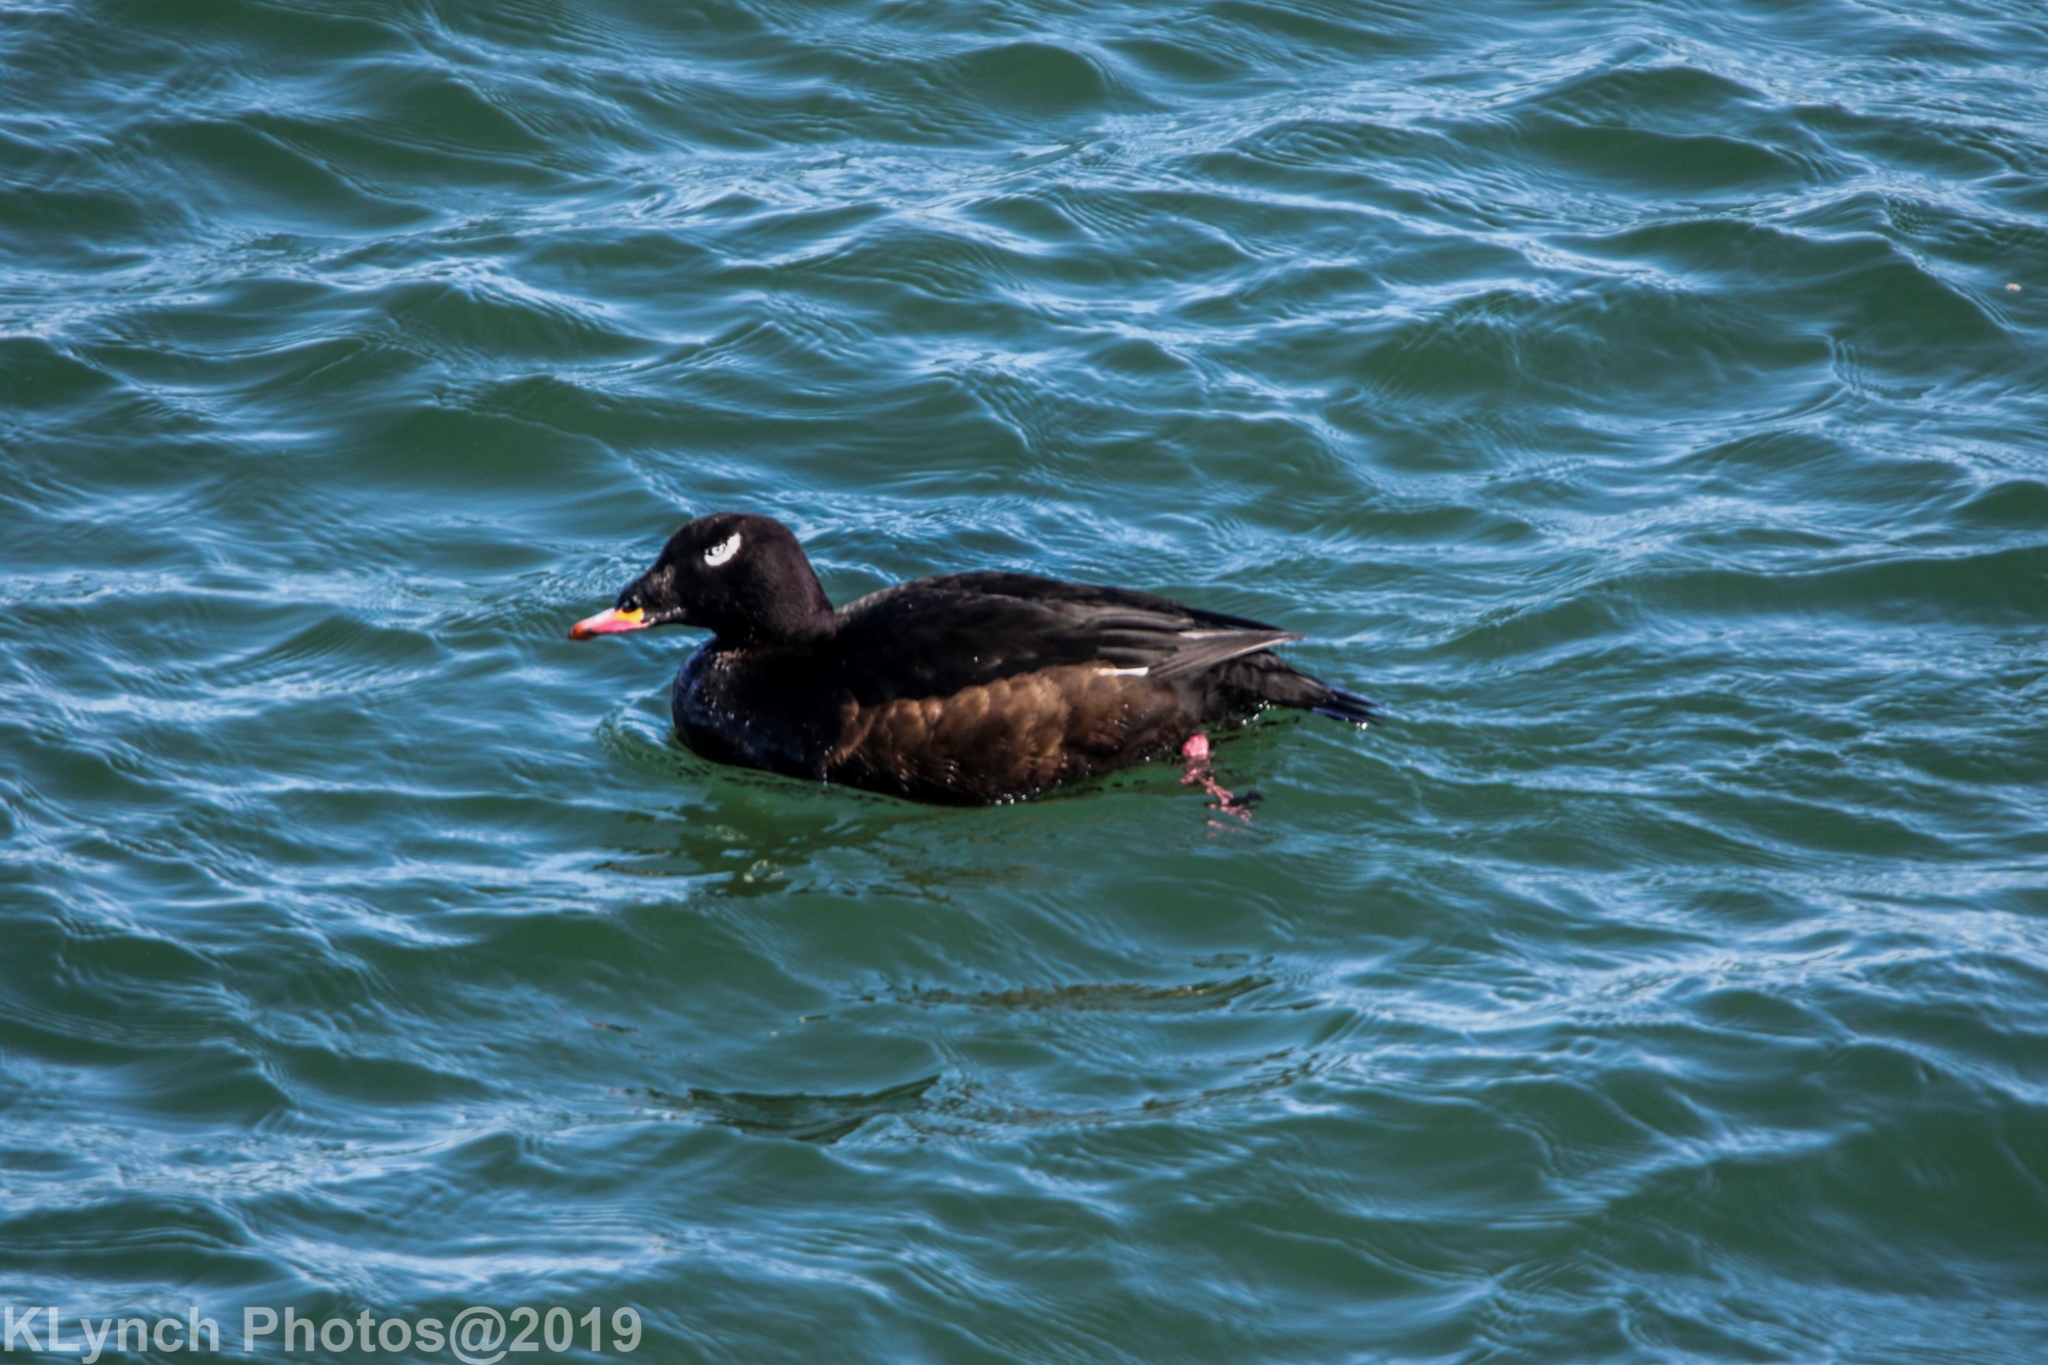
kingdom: Animalia
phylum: Chordata
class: Aves
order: Anseriformes
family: Anatidae
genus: Melanitta
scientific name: Melanitta deglandi
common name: White-winged scoter
